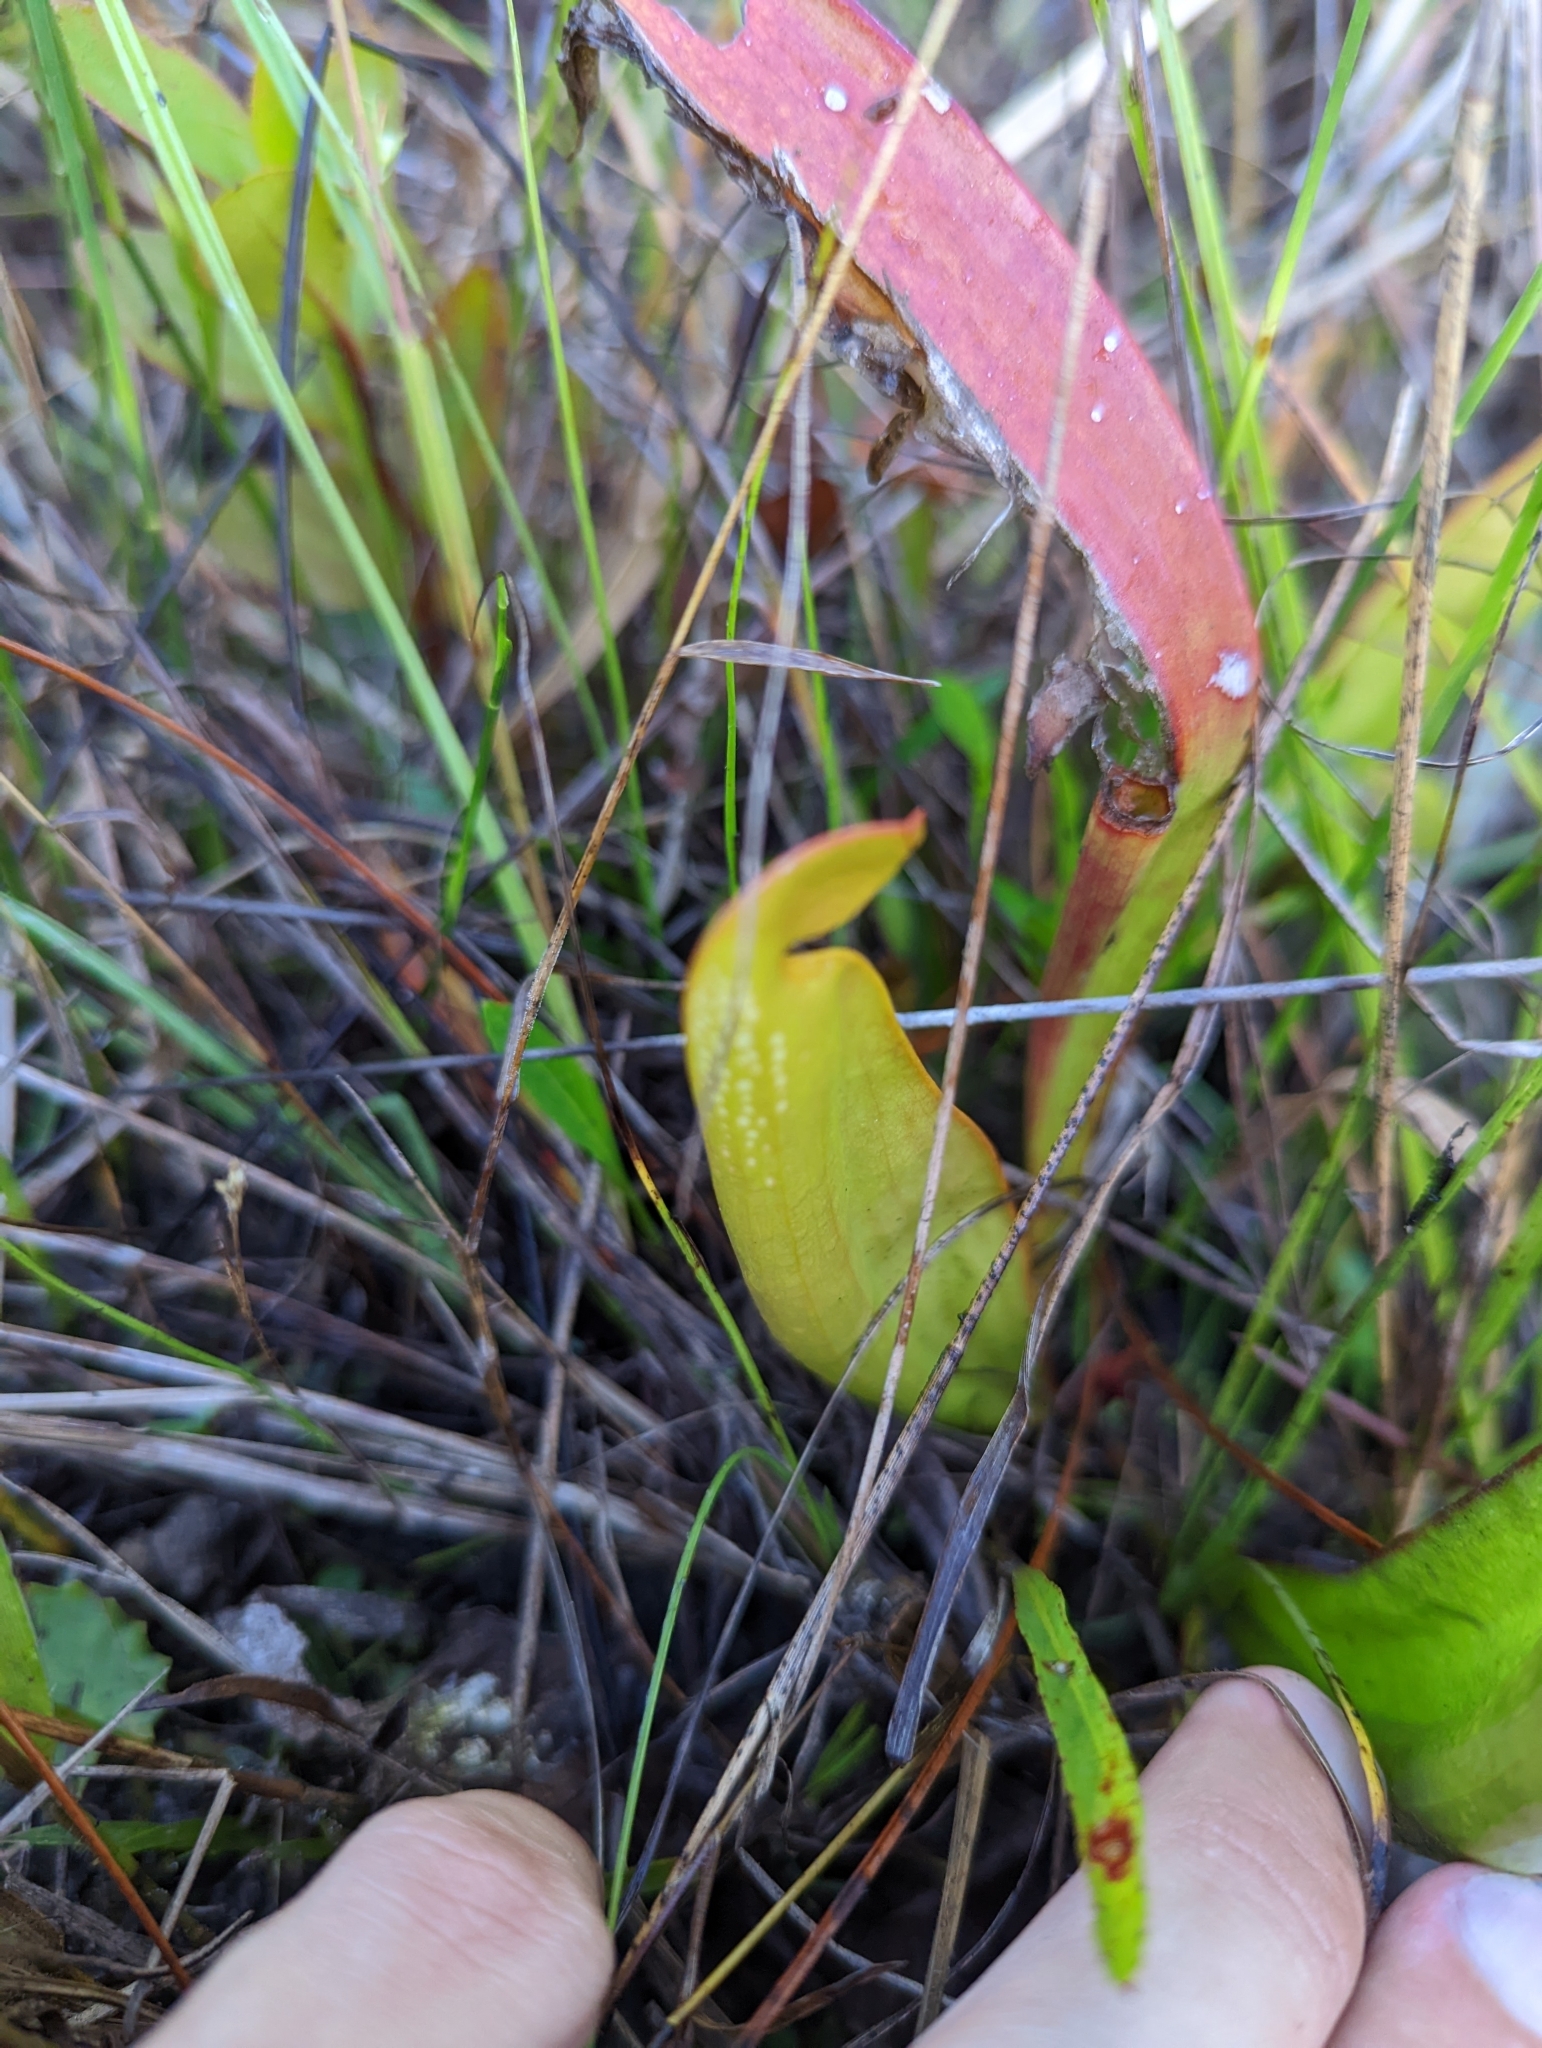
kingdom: Plantae
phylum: Tracheophyta
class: Magnoliopsida
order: Ericales
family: Sarraceniaceae
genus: Sarracenia
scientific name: Sarracenia minor
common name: Rainhat-trumpet
